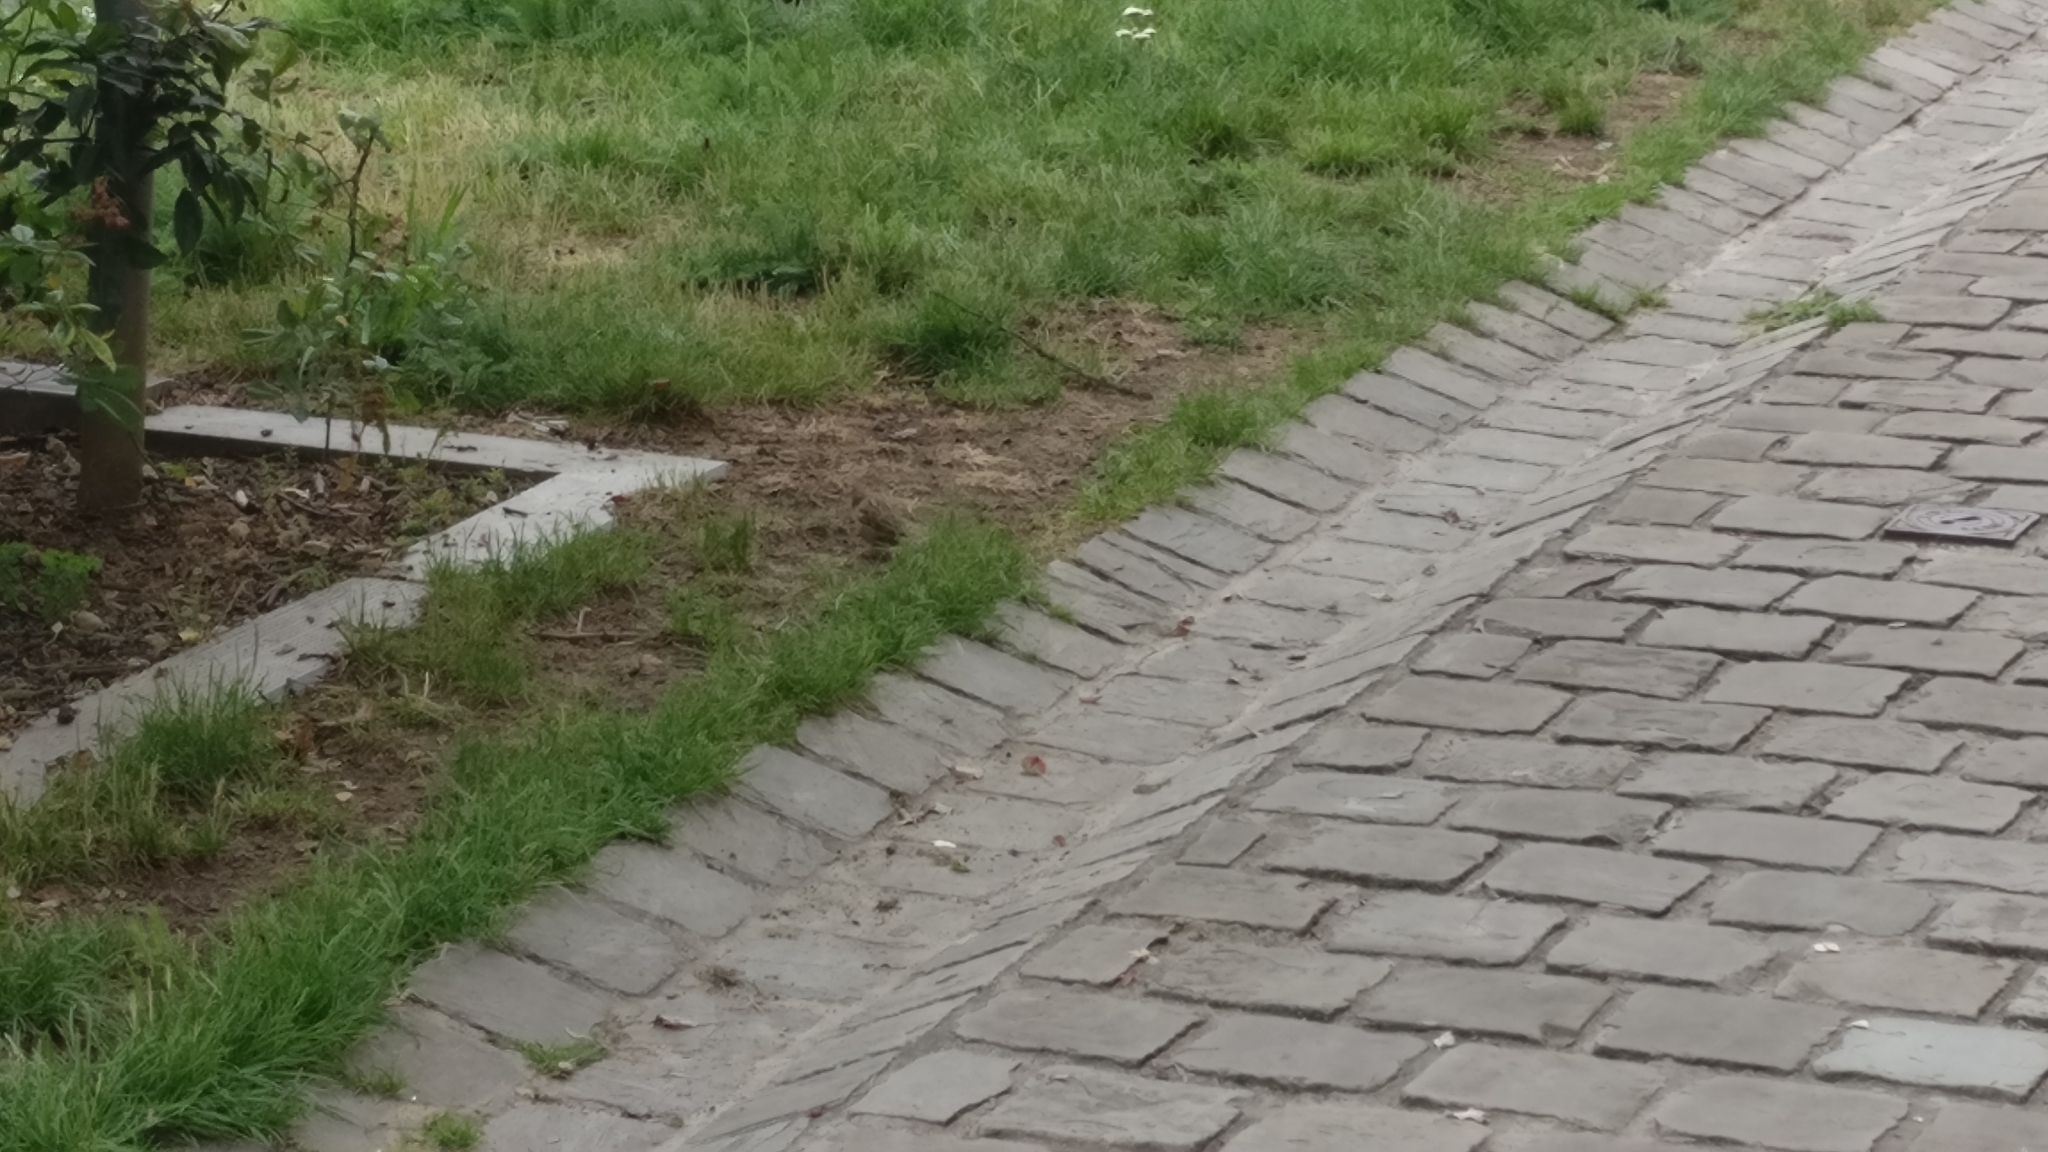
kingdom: Animalia
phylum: Chordata
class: Aves
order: Passeriformes
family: Passeridae
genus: Passer
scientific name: Passer domesticus
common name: House sparrow
